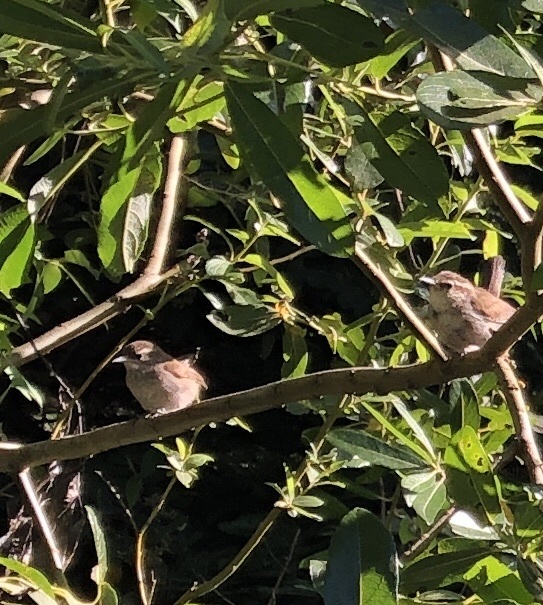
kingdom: Animalia
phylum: Chordata
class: Aves
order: Passeriformes
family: Troglodytidae
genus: Thryomanes
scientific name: Thryomanes bewickii
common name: Bewick's wren
